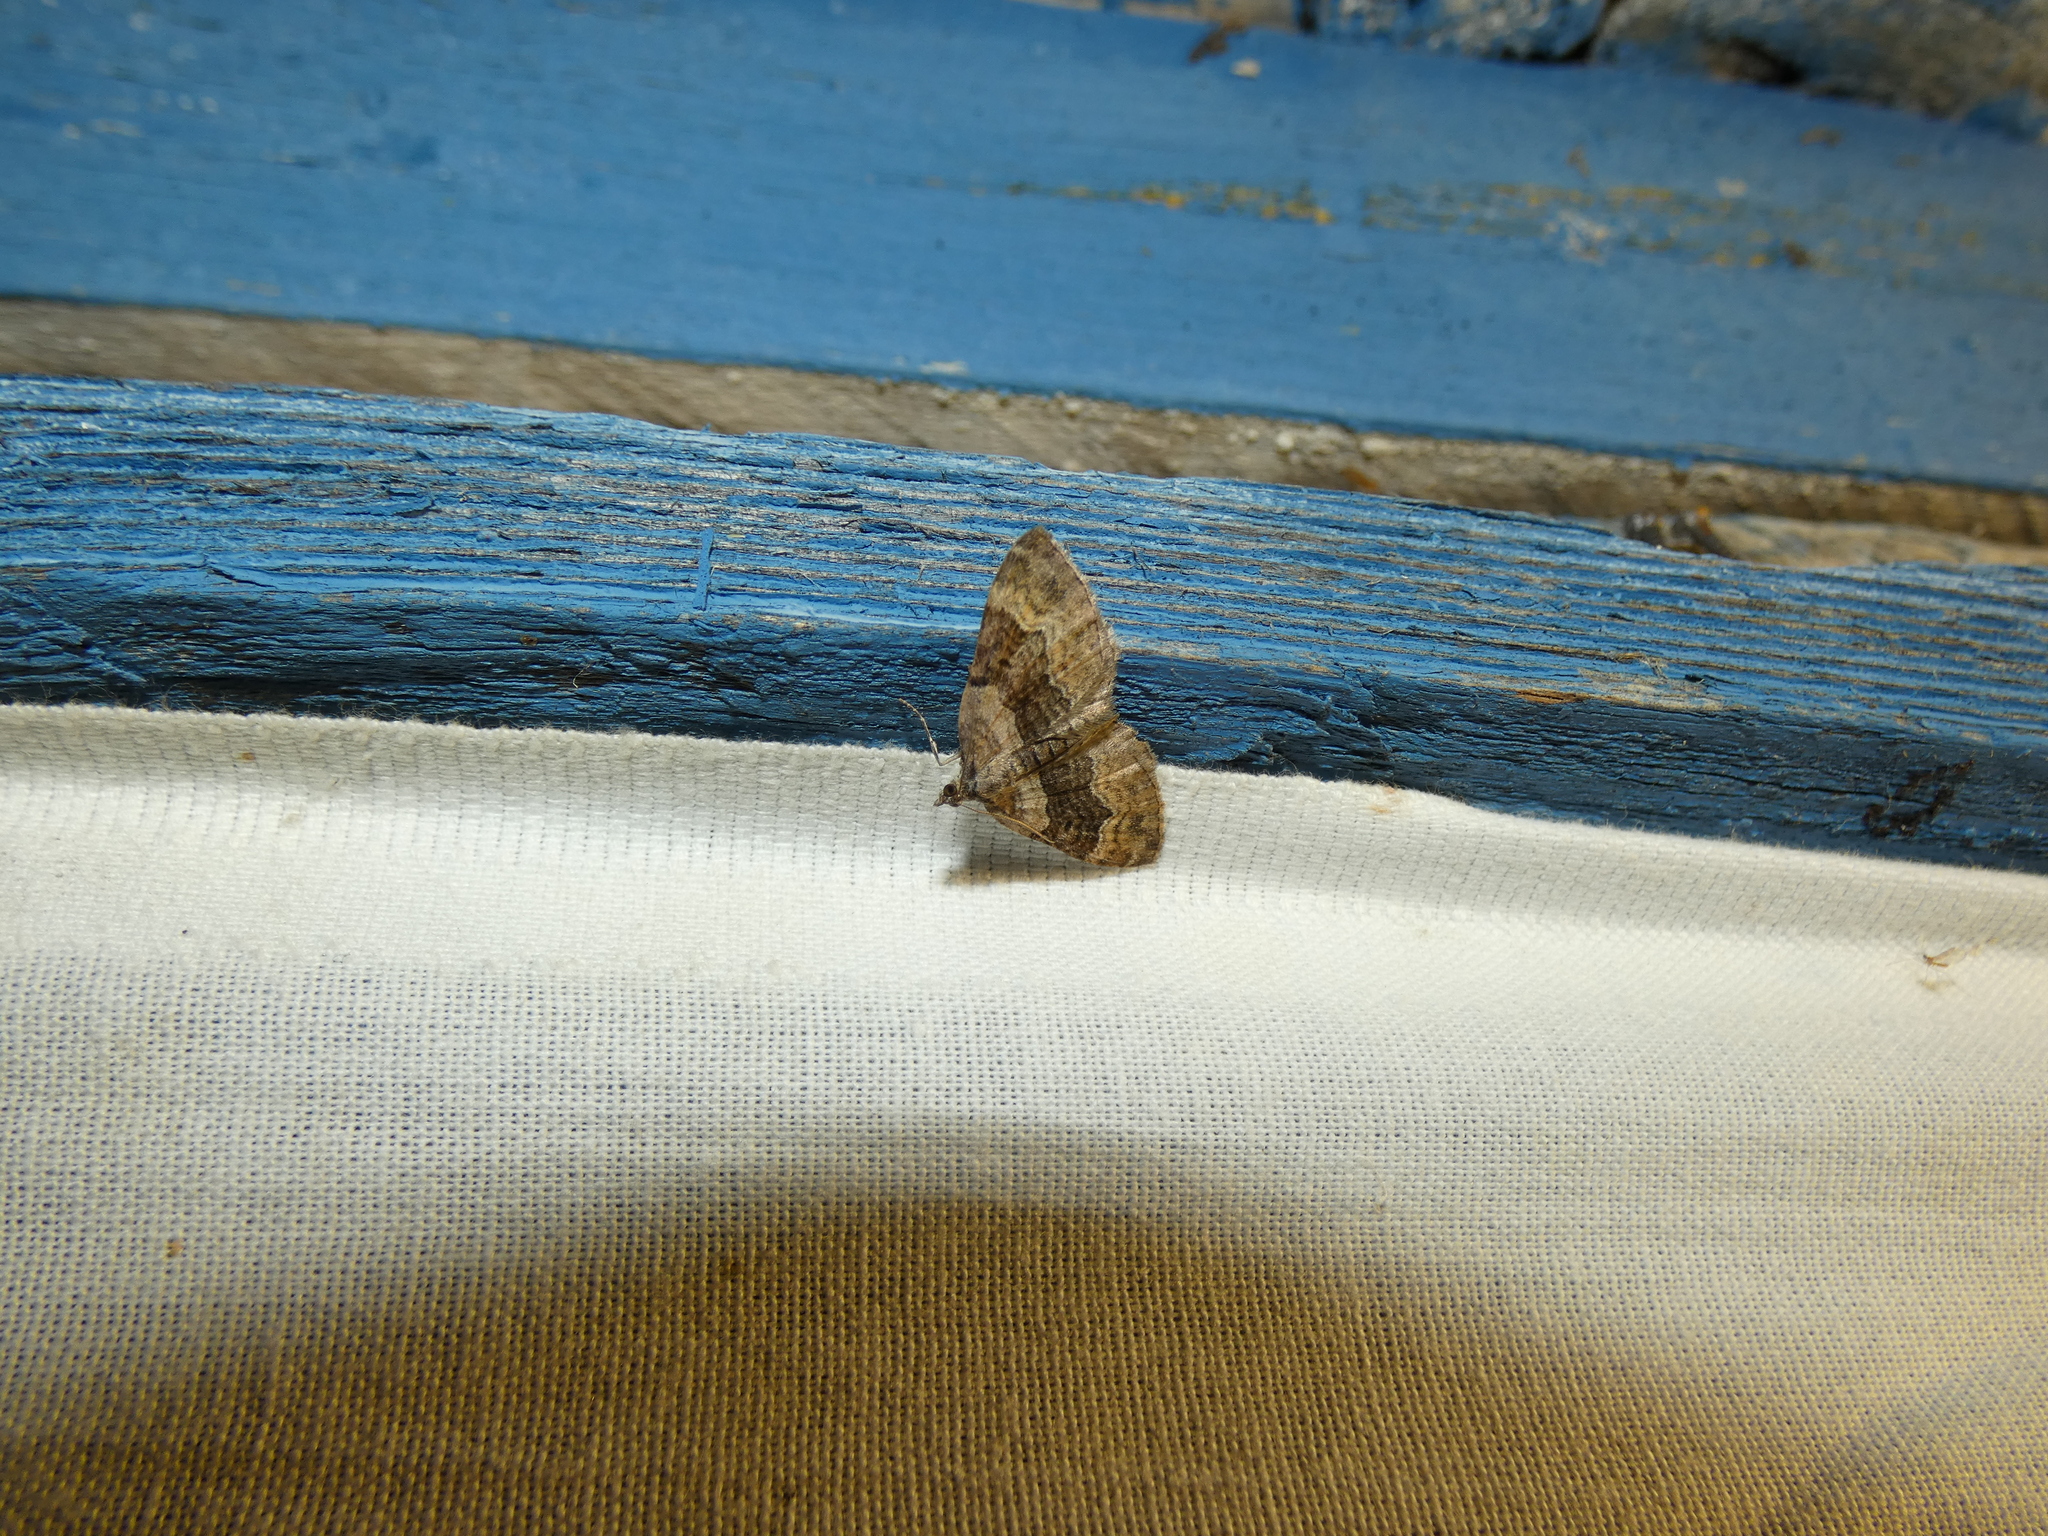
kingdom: Animalia
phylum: Arthropoda
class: Insecta
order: Lepidoptera
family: Geometridae
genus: Xanthorhoe
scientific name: Xanthorhoe quadrifasiata
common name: Large twin-spot carpet
